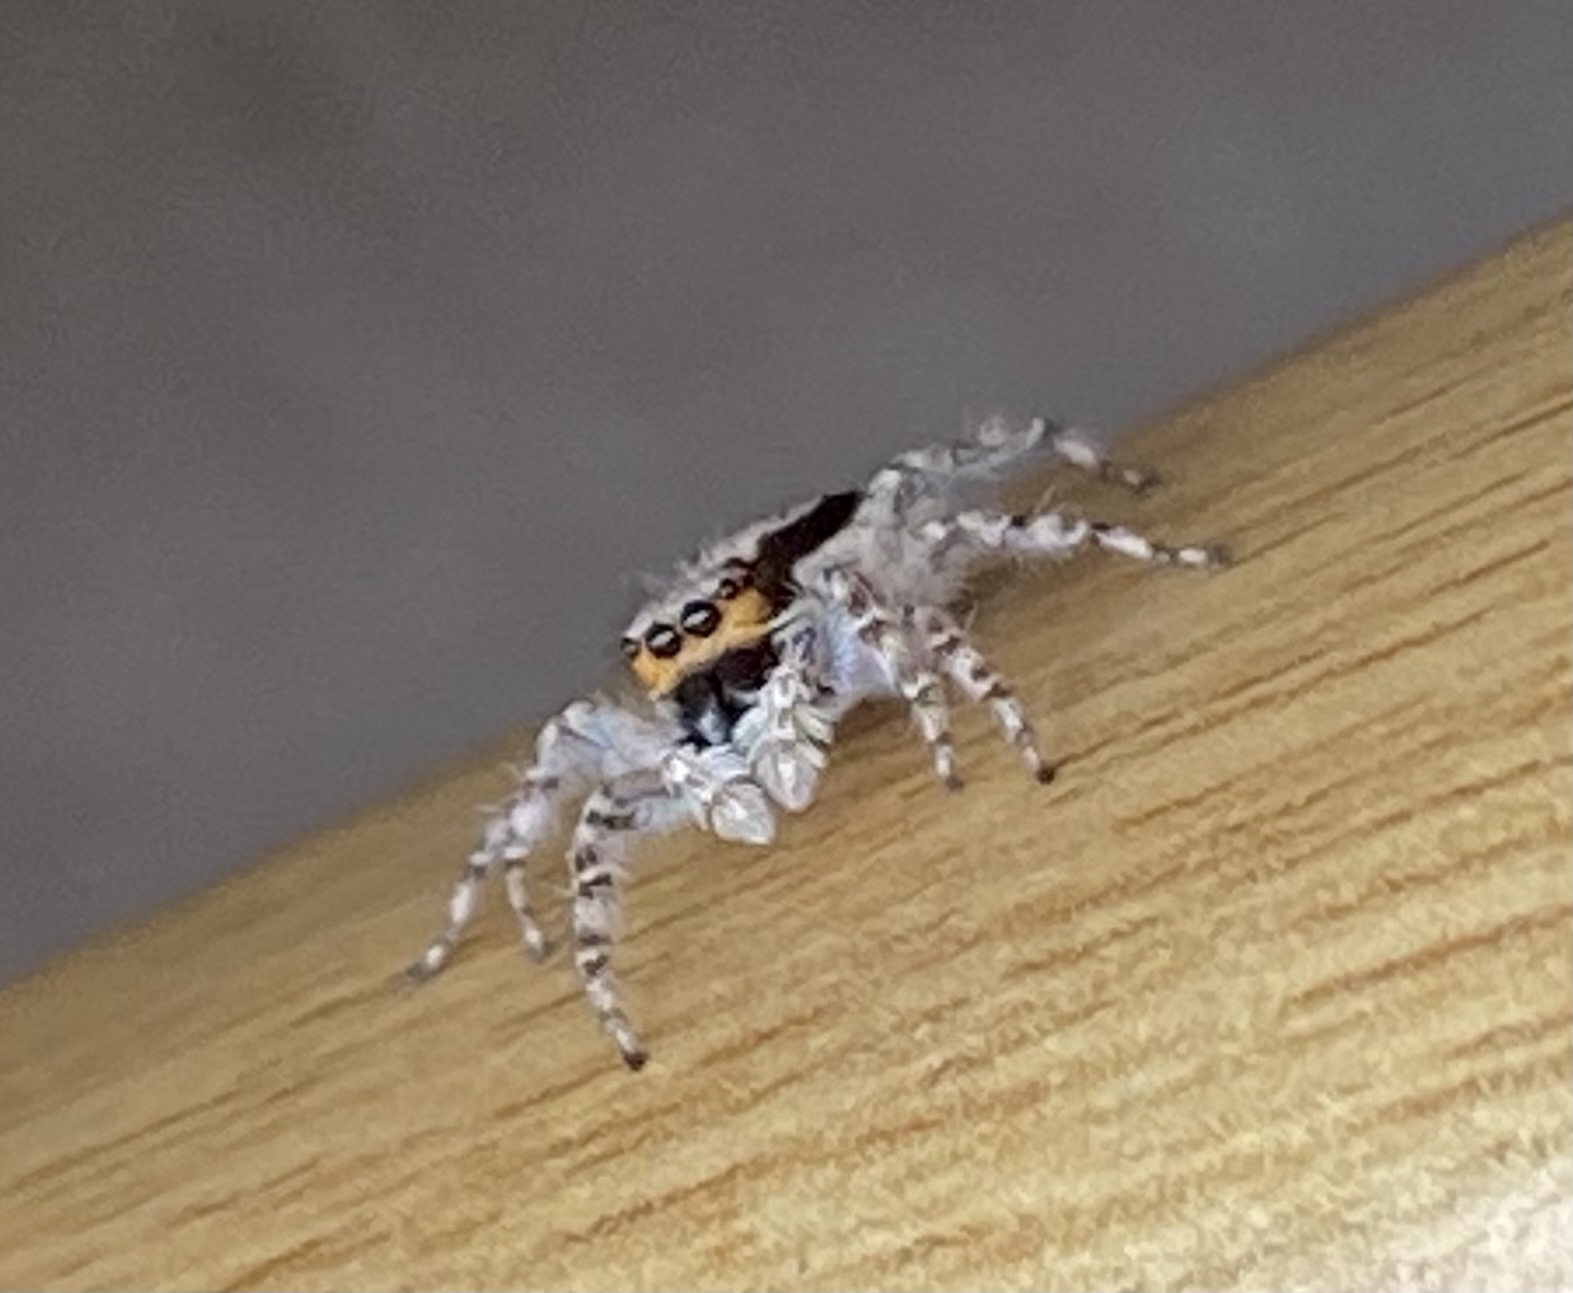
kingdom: Animalia
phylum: Arthropoda
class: Arachnida
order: Araneae
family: Salticidae
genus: Menemerus
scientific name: Menemerus bivittatus
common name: Gray wall jumper
